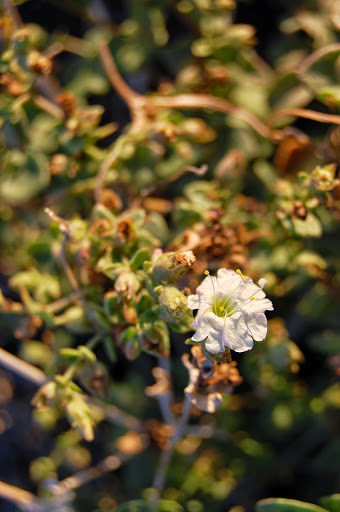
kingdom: Plantae
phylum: Tracheophyta
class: Magnoliopsida
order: Caryophyllales
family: Nyctaginaceae
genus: Mirabilis
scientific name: Mirabilis laevis
